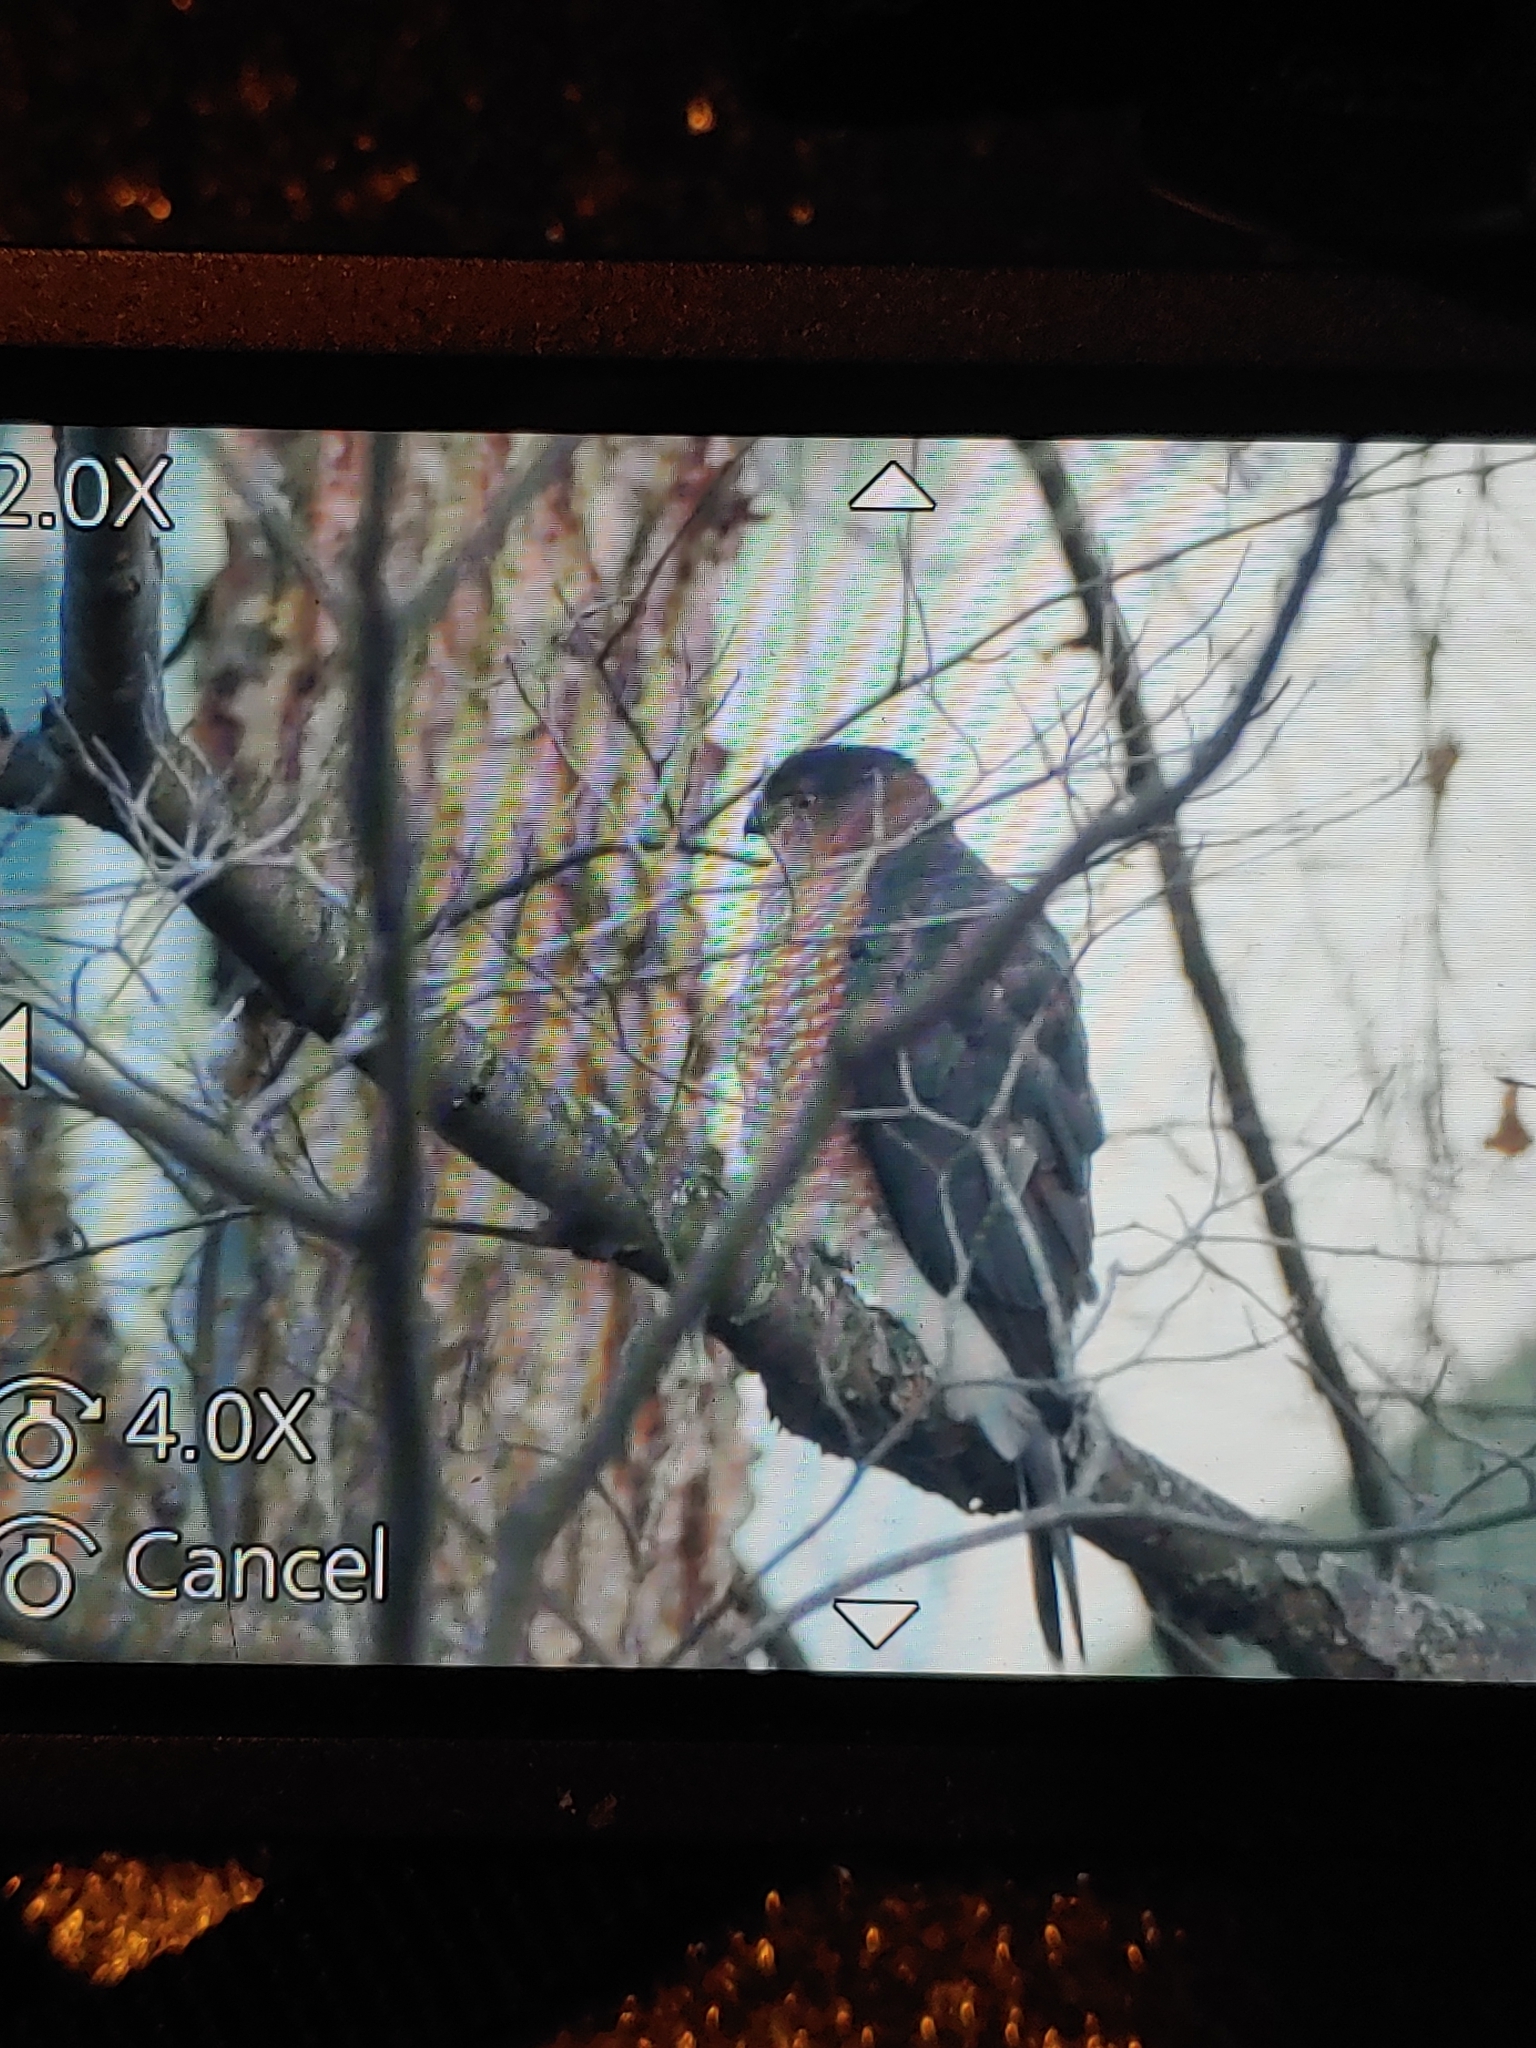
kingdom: Animalia
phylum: Chordata
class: Aves
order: Accipitriformes
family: Accipitridae
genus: Accipiter
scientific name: Accipiter cooperii
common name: Cooper's hawk
